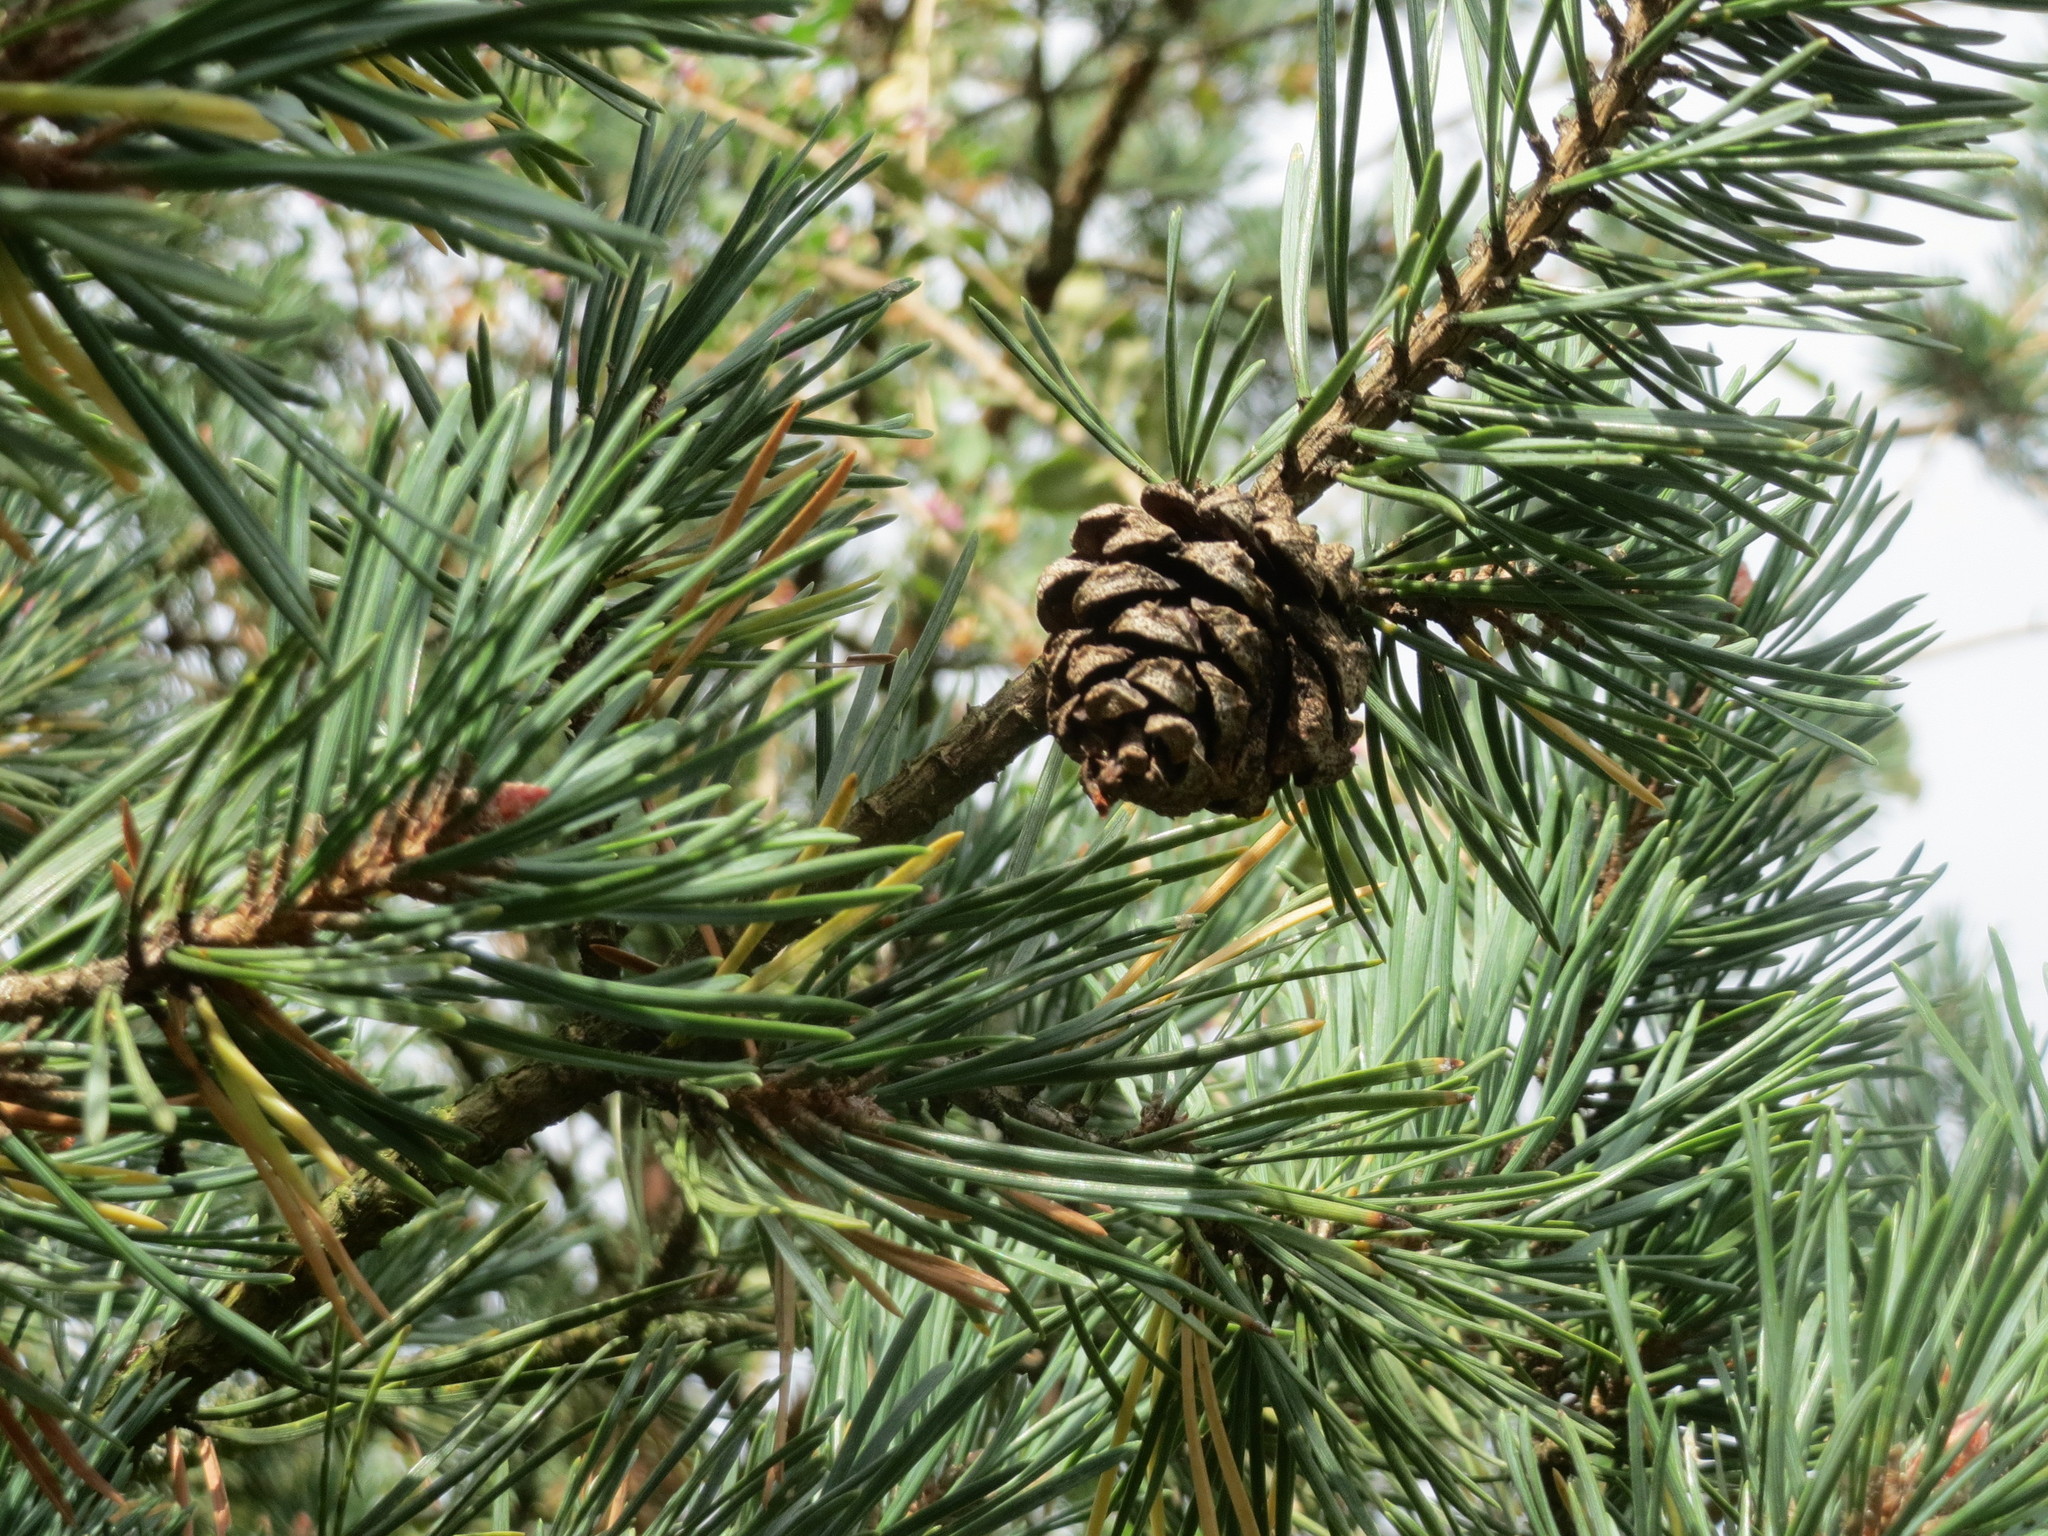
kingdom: Plantae
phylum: Tracheophyta
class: Pinopsida
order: Pinales
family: Pinaceae
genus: Pinus
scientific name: Pinus sylvestris
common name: Scots pine
